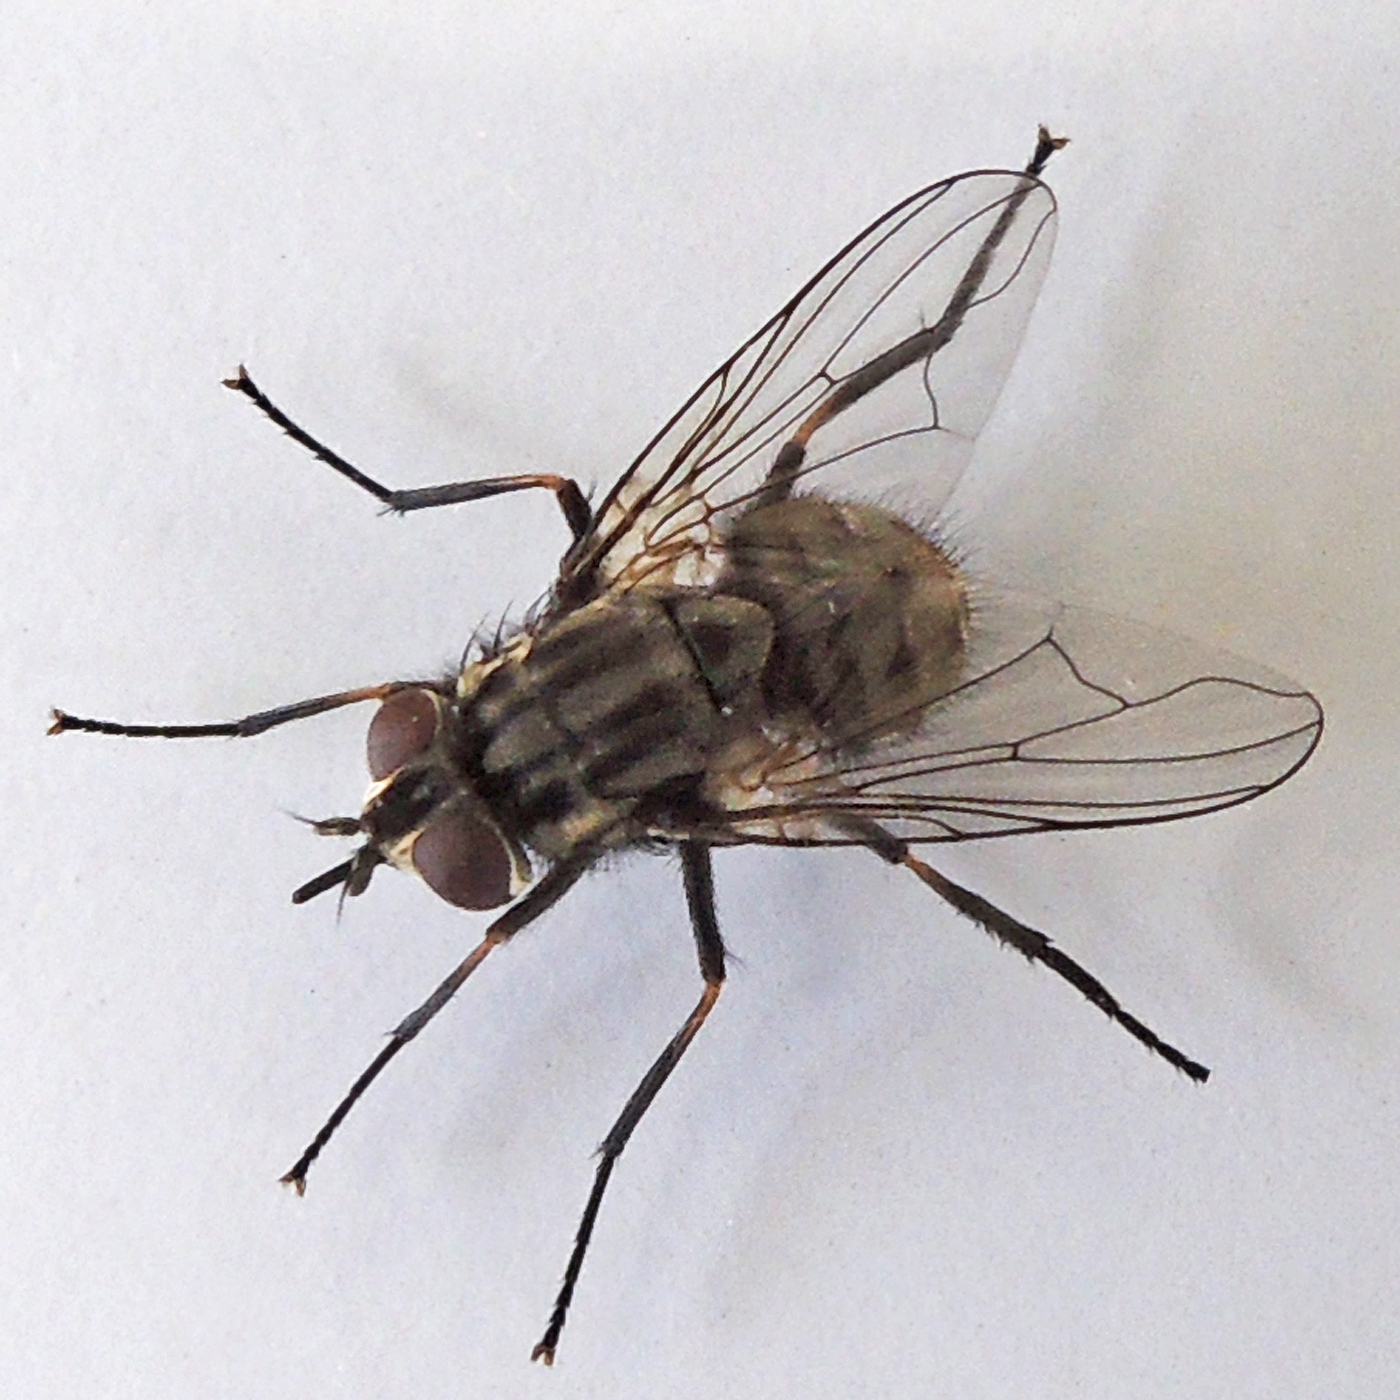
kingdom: Animalia
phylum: Arthropoda
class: Insecta
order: Diptera
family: Muscidae
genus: Stomoxys
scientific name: Stomoxys calcitrans
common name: Stable fly
